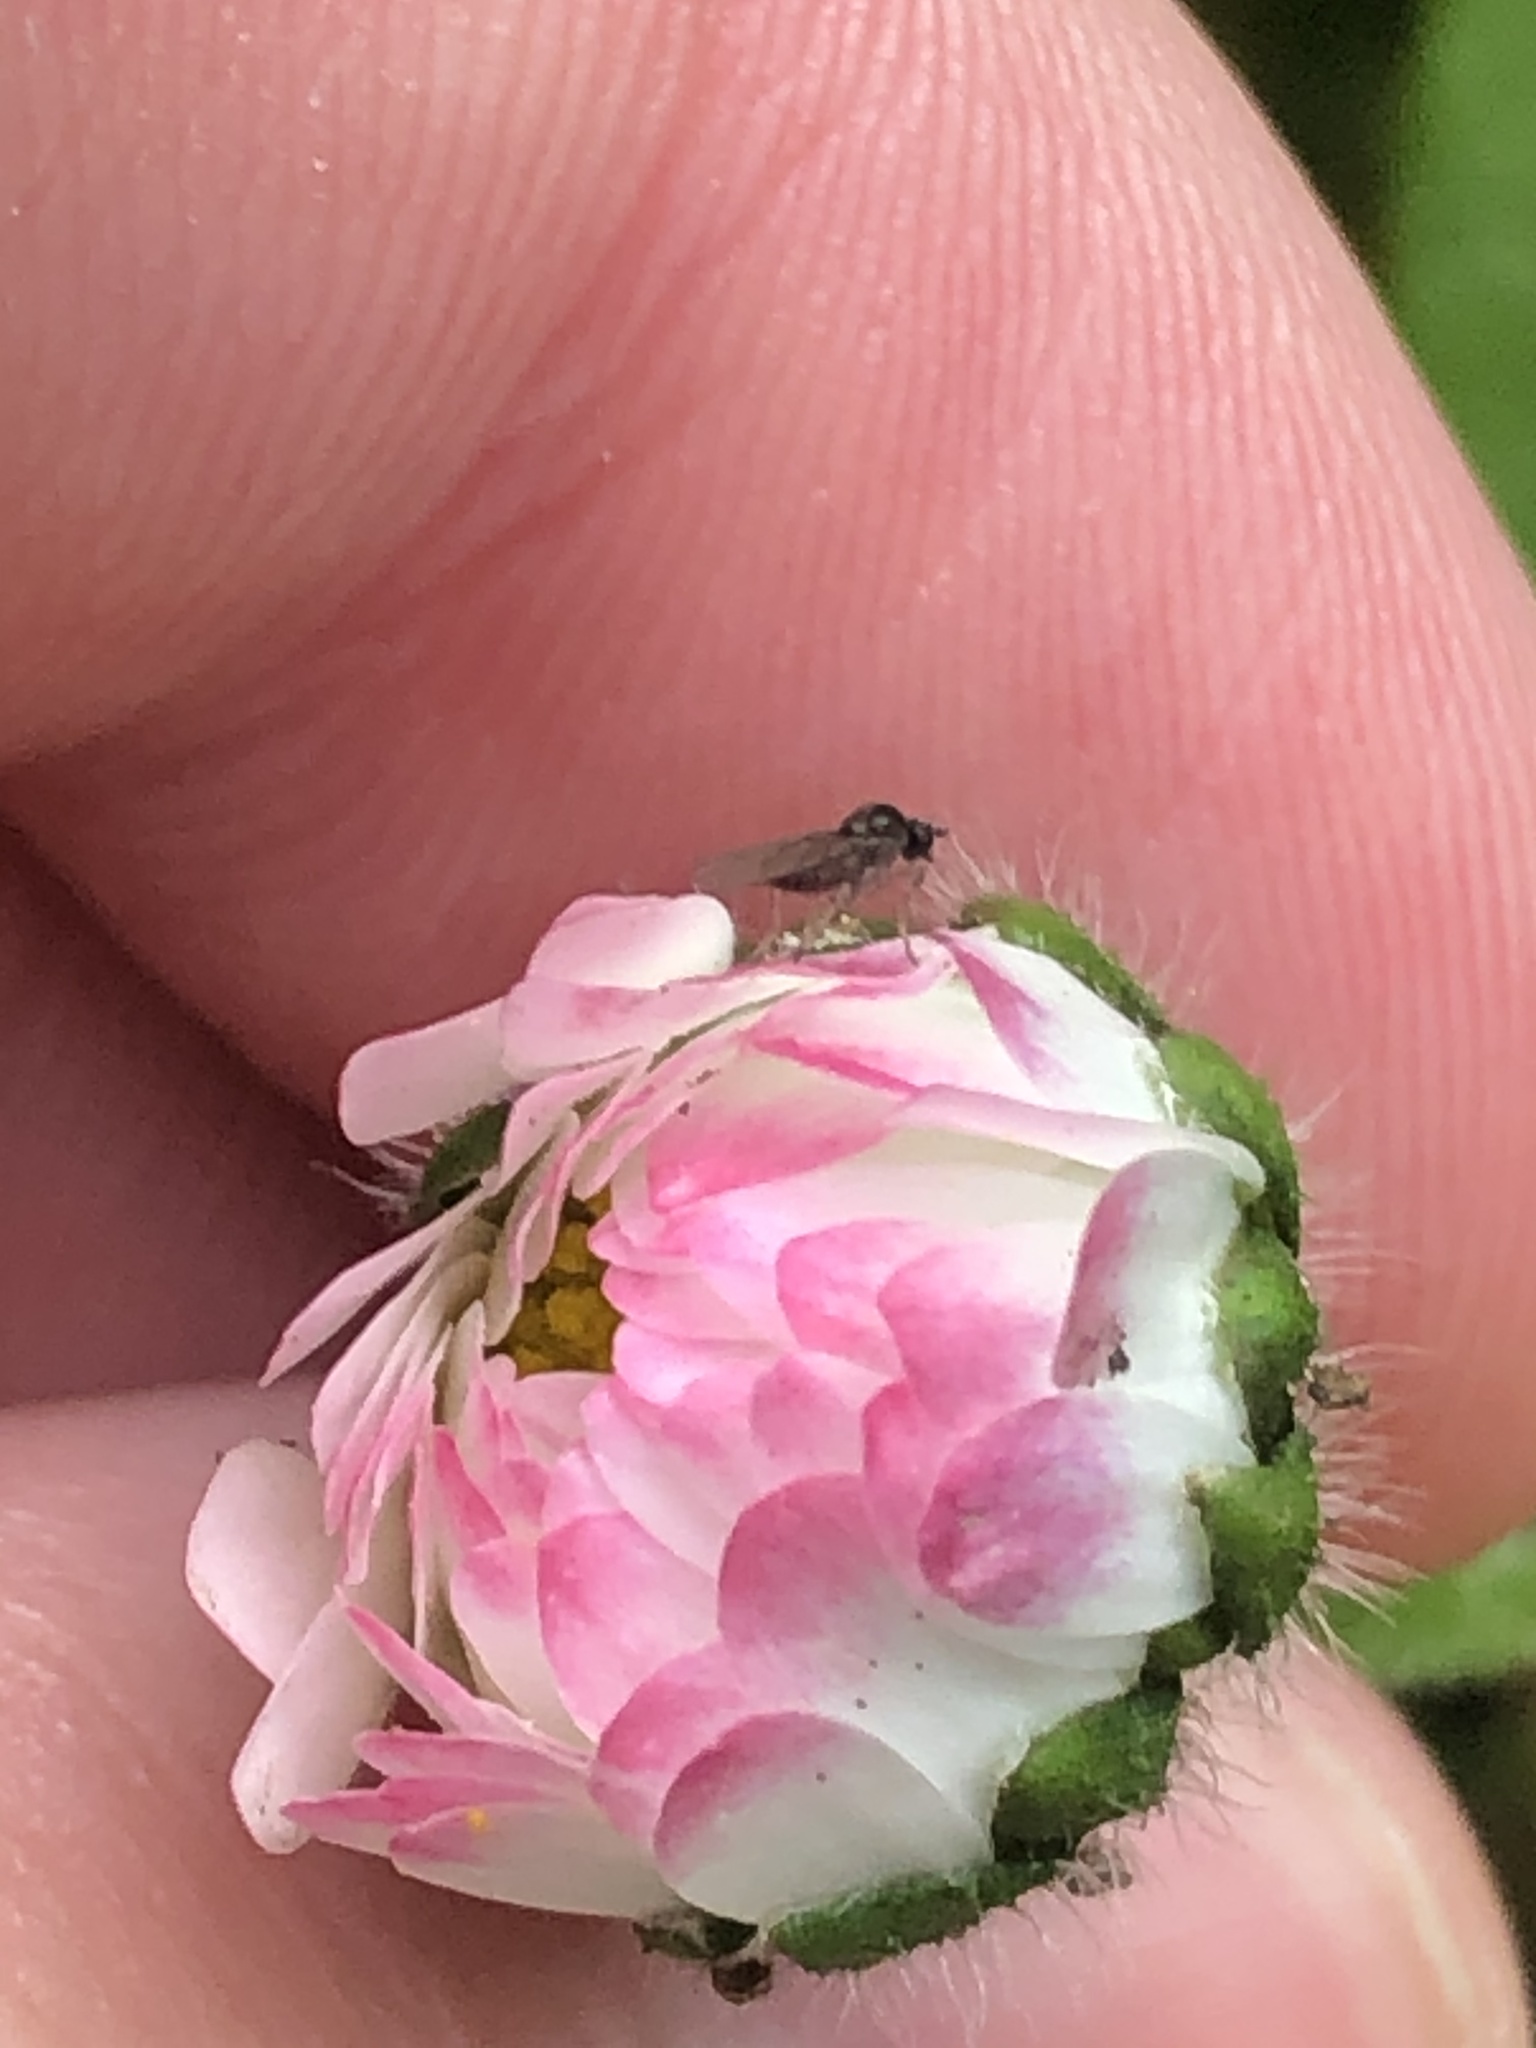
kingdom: Plantae
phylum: Tracheophyta
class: Magnoliopsida
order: Asterales
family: Asteraceae
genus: Bellis
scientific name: Bellis perennis
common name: Lawndaisy
